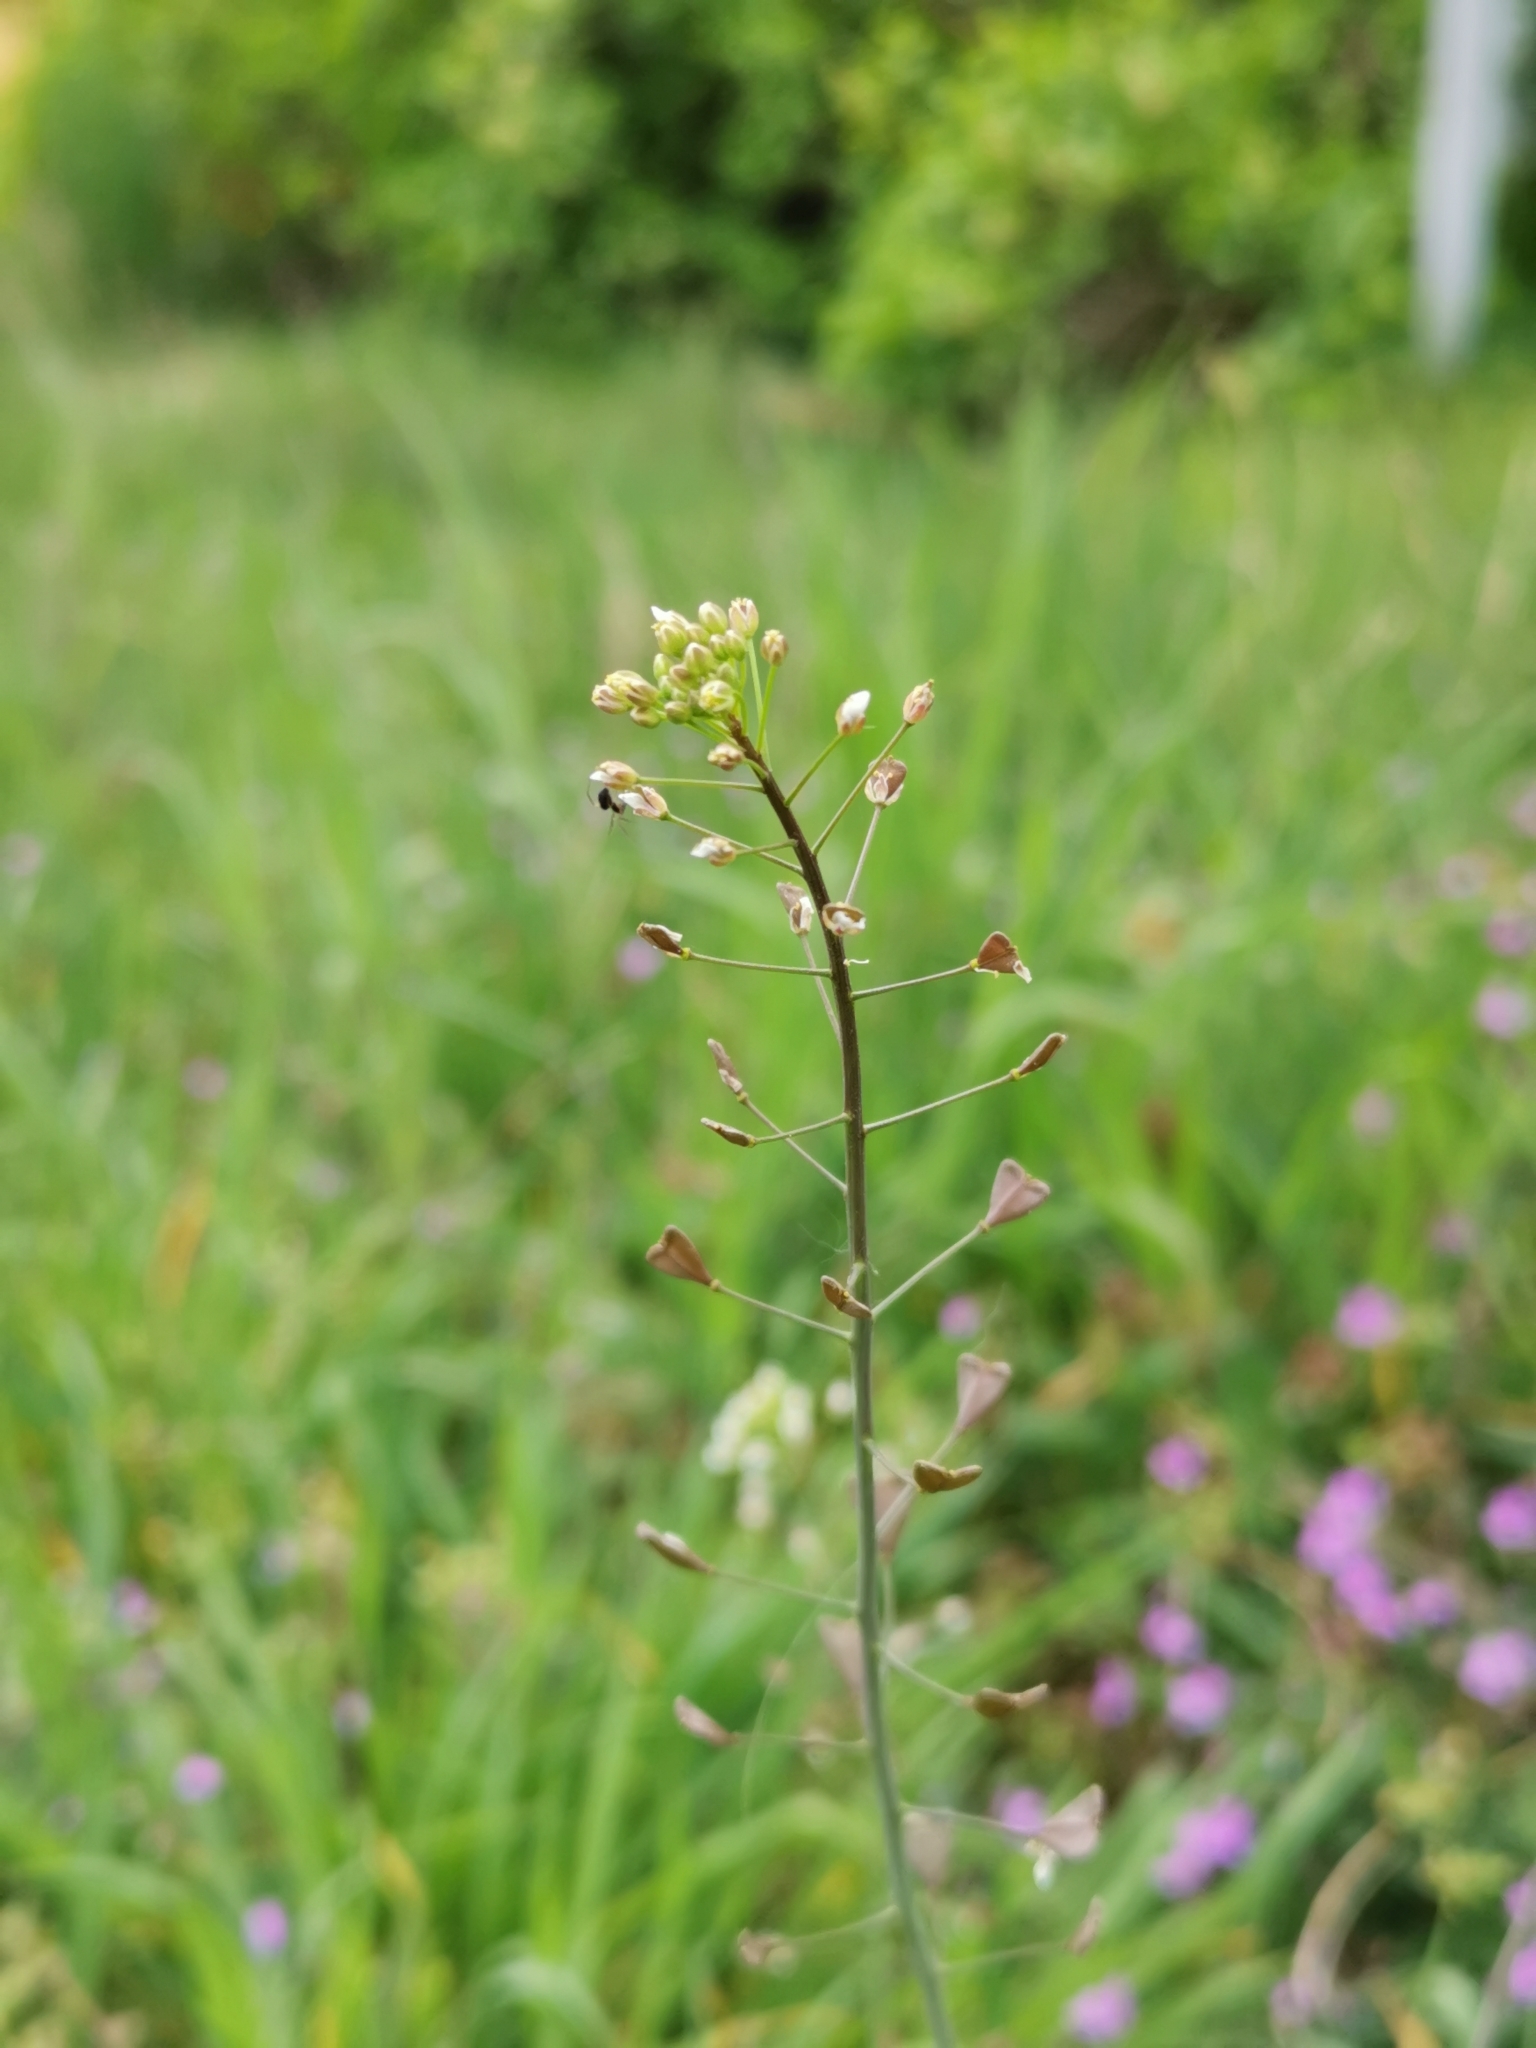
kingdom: Plantae
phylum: Tracheophyta
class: Magnoliopsida
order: Brassicales
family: Brassicaceae
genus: Capsella
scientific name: Capsella bursa-pastoris
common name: Shepherd's purse
